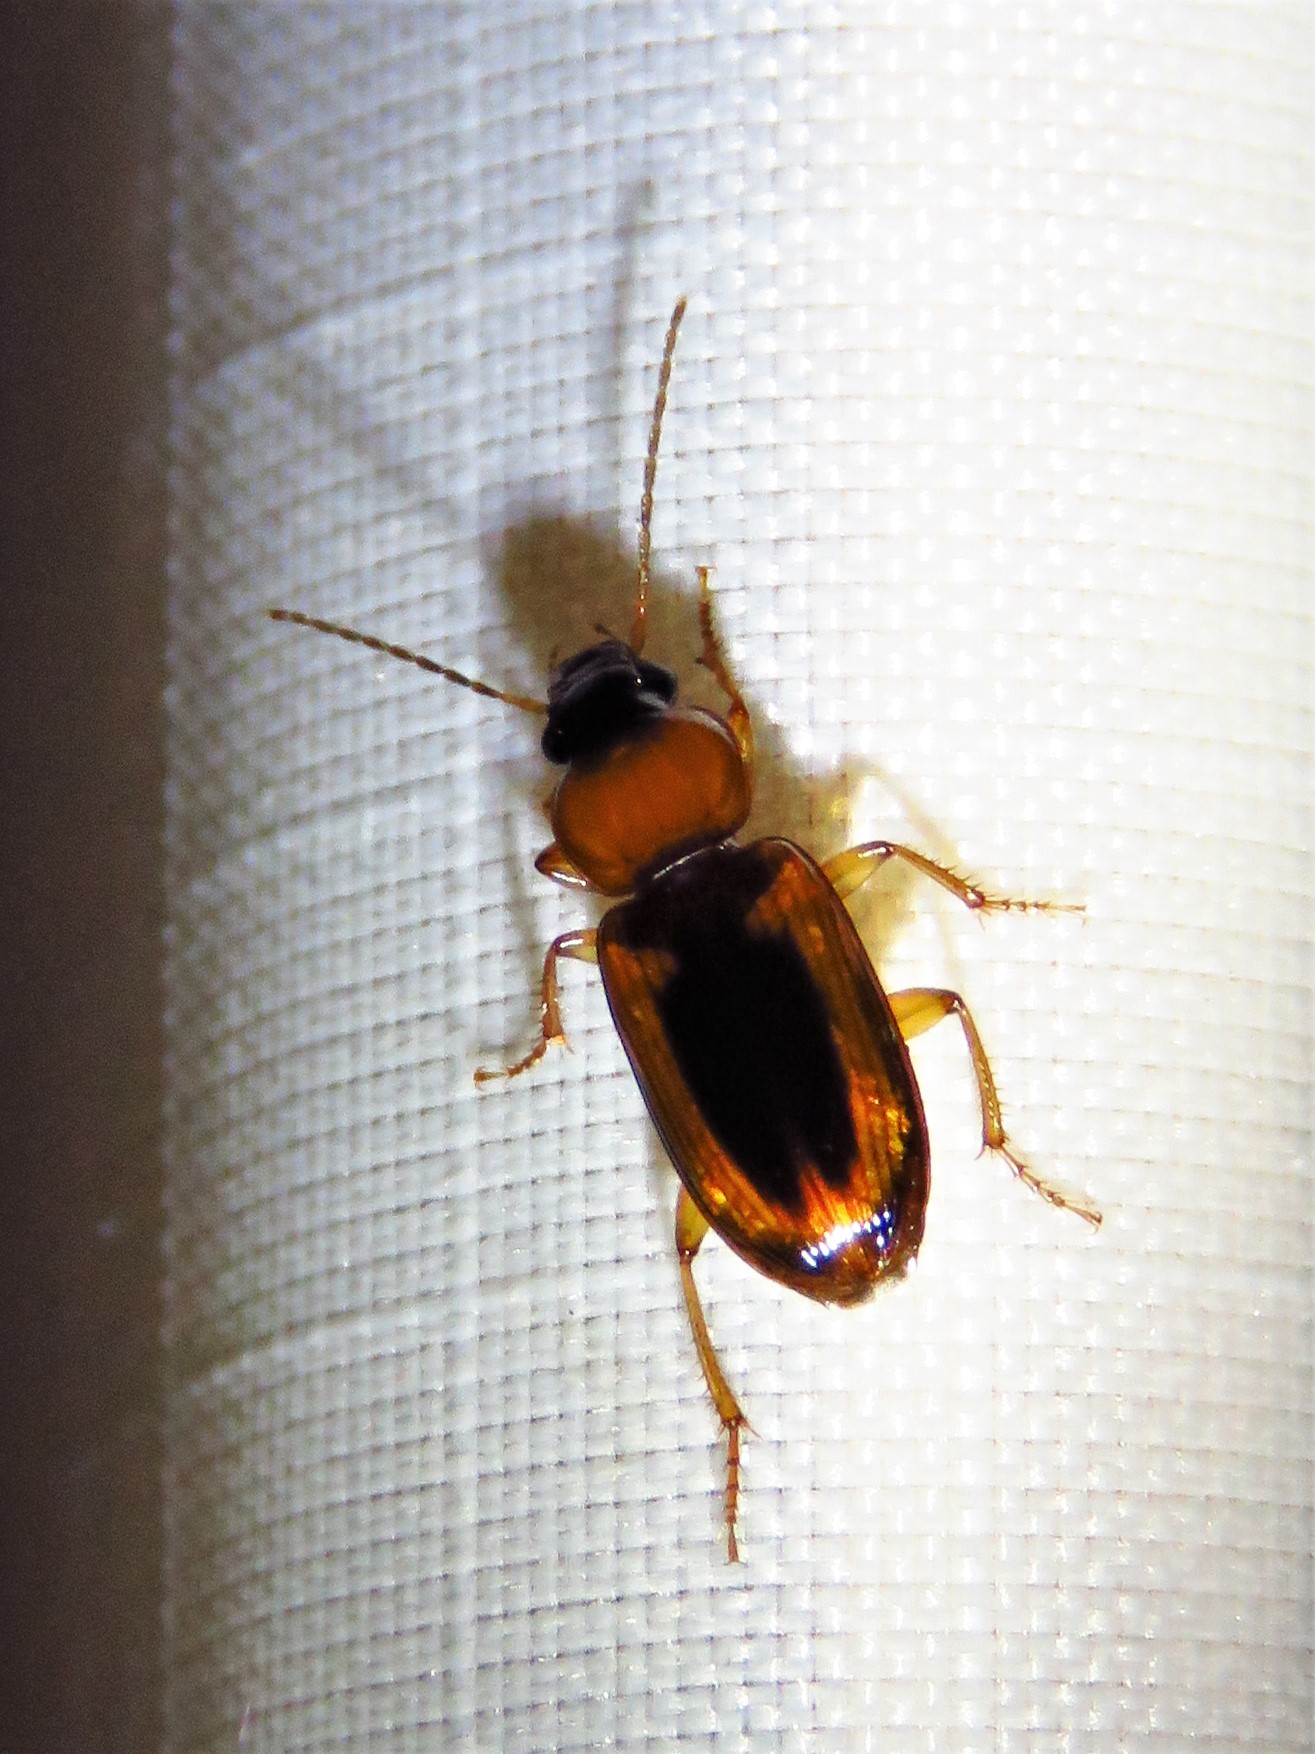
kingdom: Animalia
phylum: Arthropoda
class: Insecta
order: Coleoptera
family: Carabidae
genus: Stenolophus
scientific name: Stenolophus dissimilis
